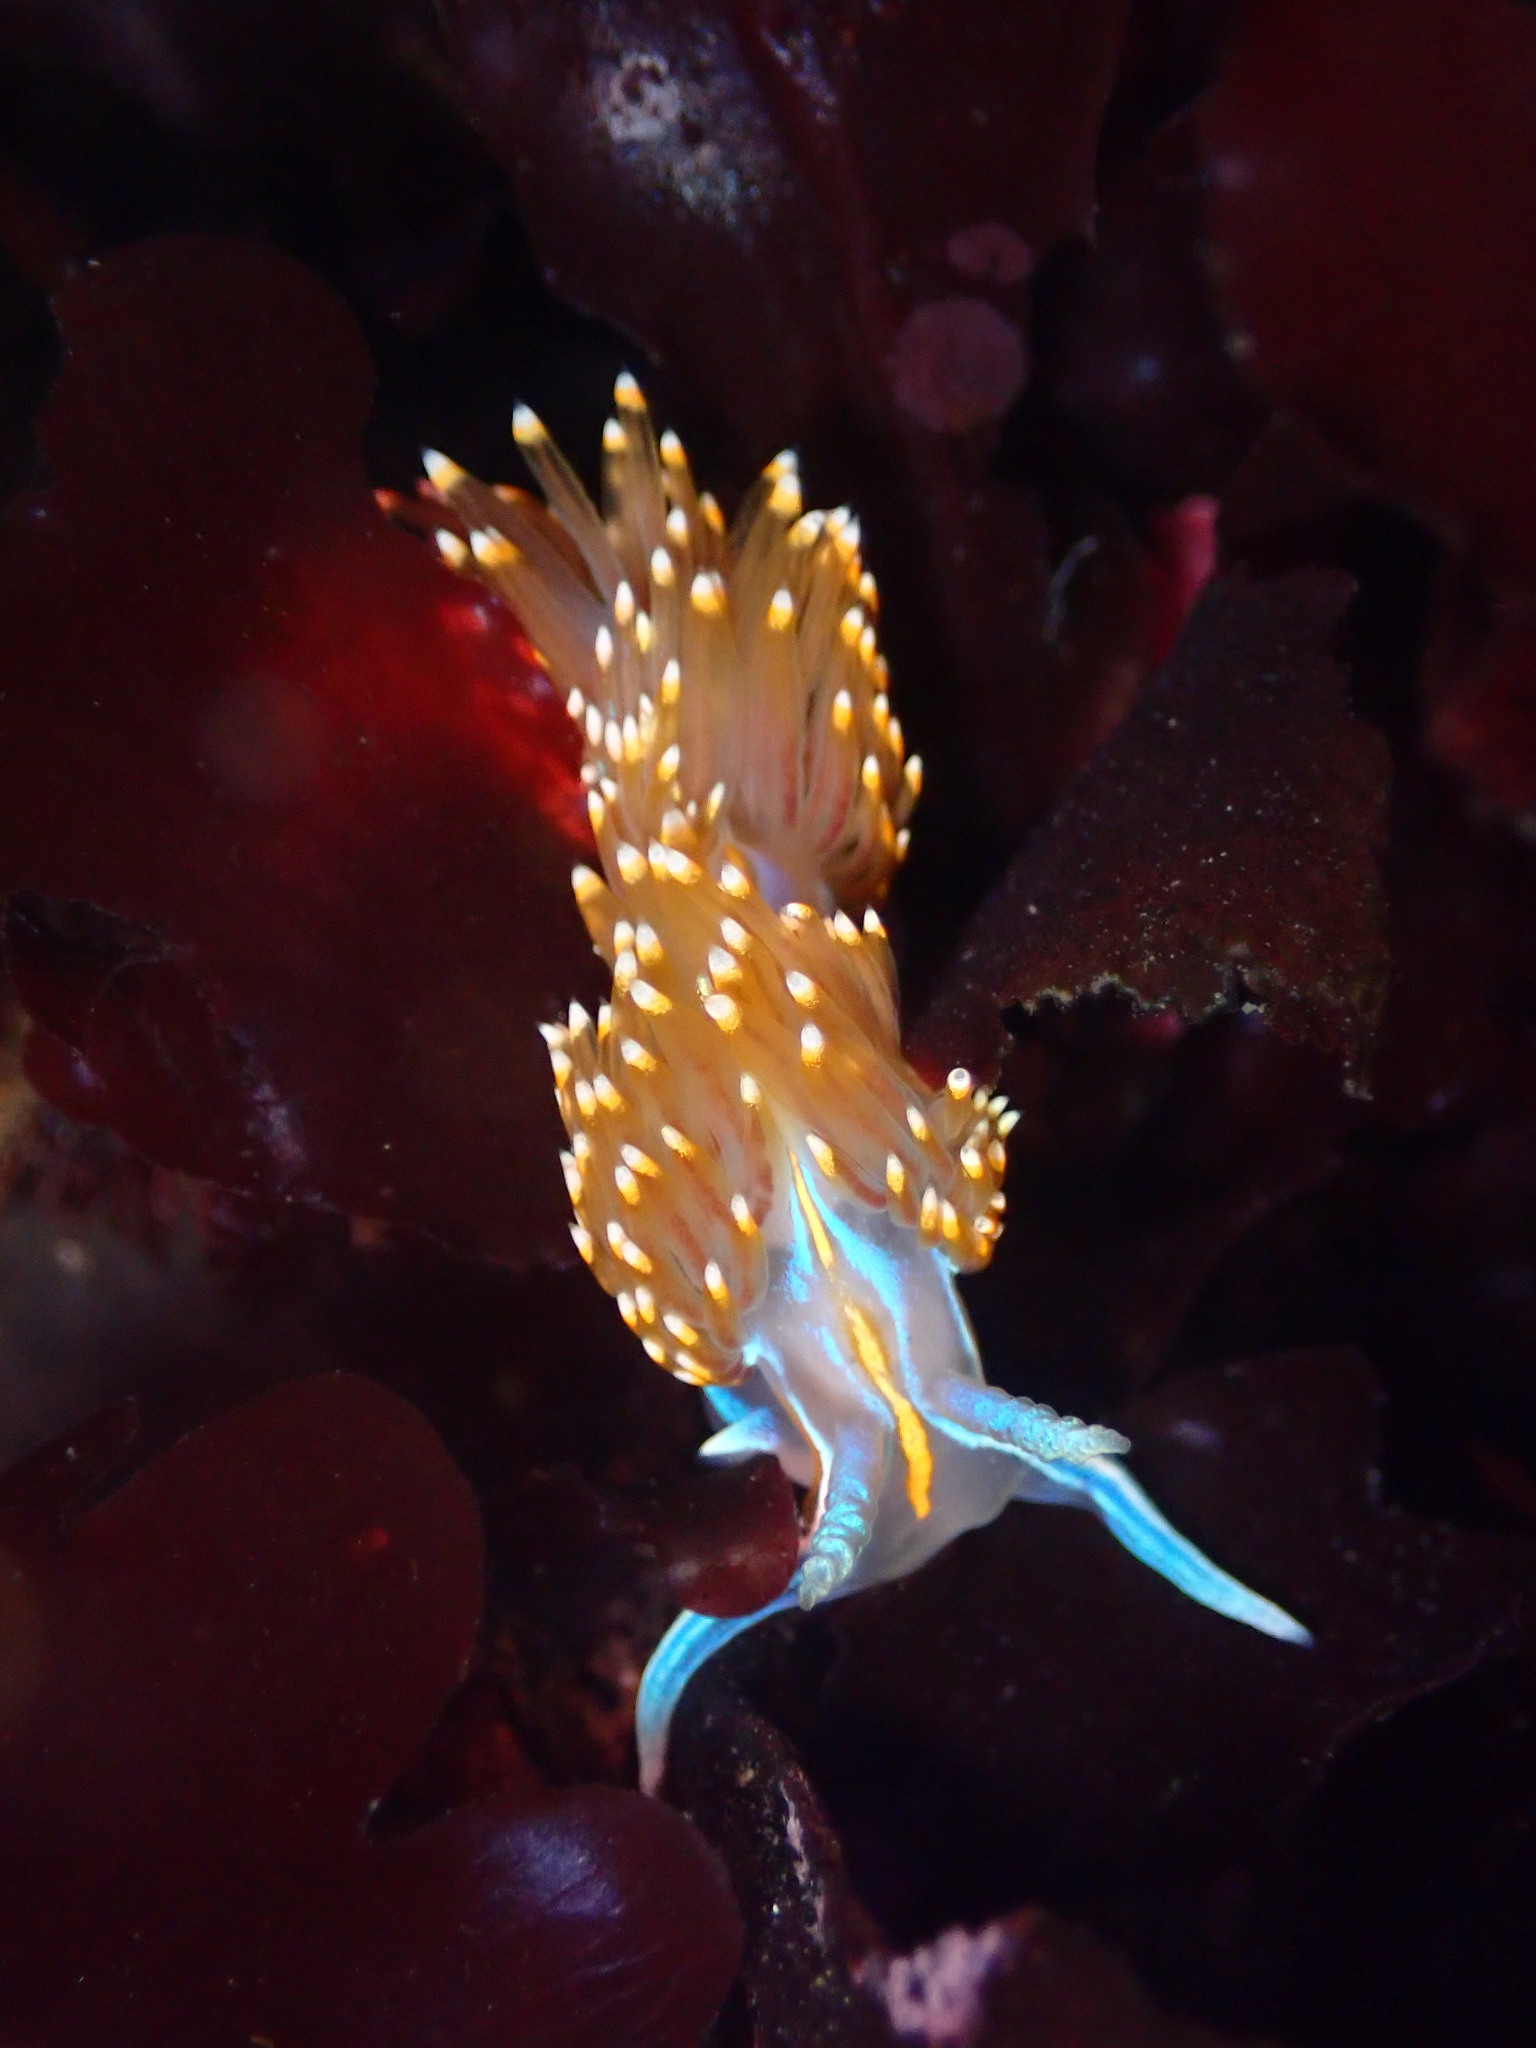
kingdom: Animalia
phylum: Mollusca
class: Gastropoda
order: Nudibranchia
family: Myrrhinidae
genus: Hermissenda
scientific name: Hermissenda opalescens
